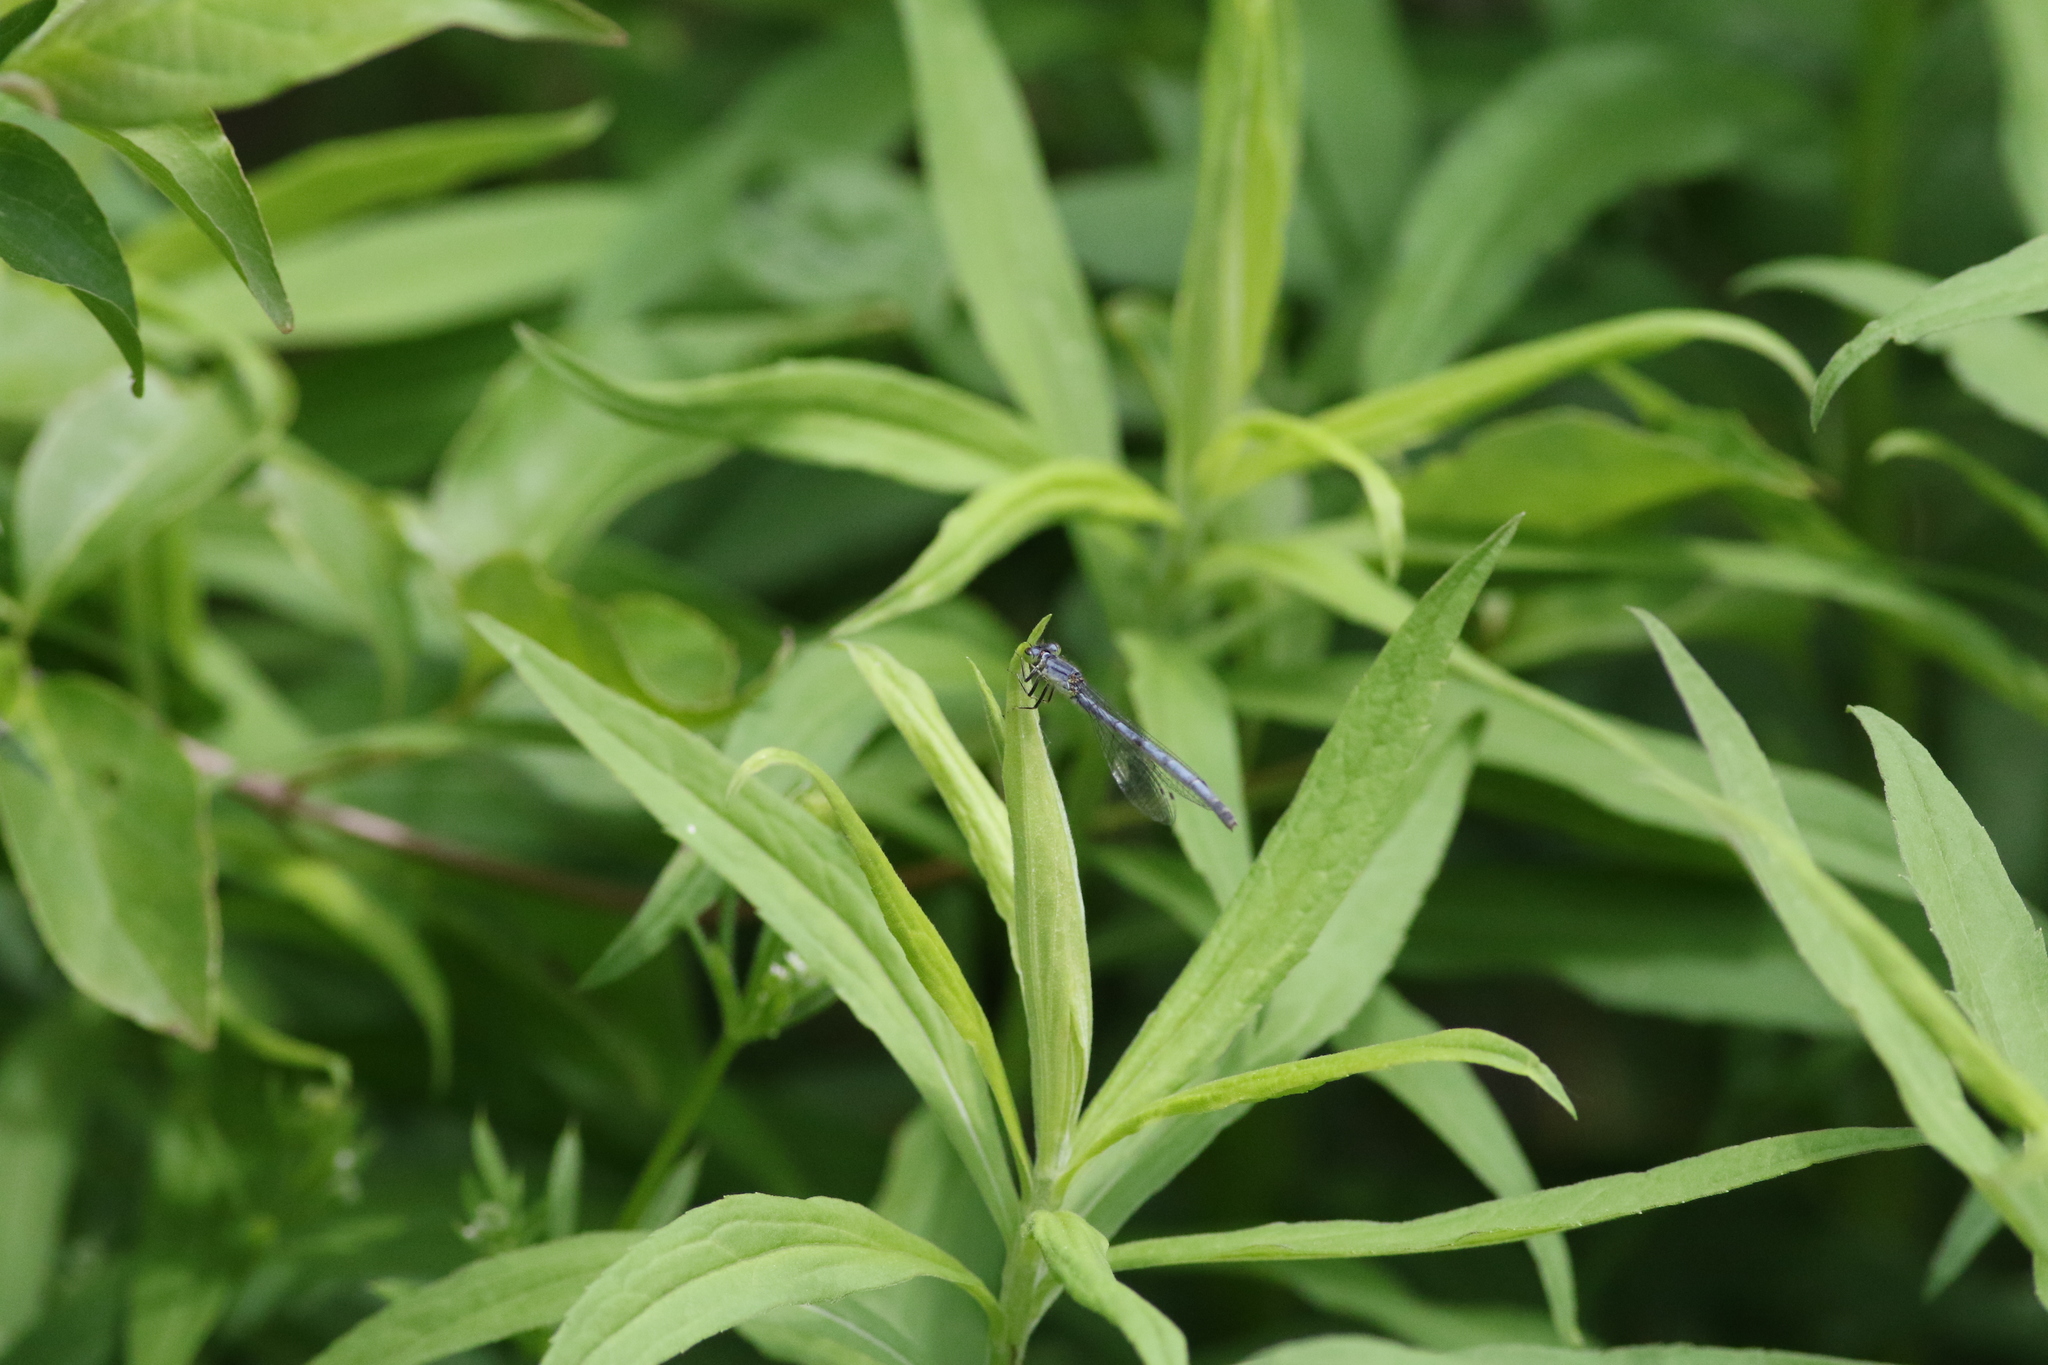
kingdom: Animalia
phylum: Arthropoda
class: Insecta
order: Odonata
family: Coenagrionidae
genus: Ischnura
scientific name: Ischnura verticalis
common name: Eastern forktail
